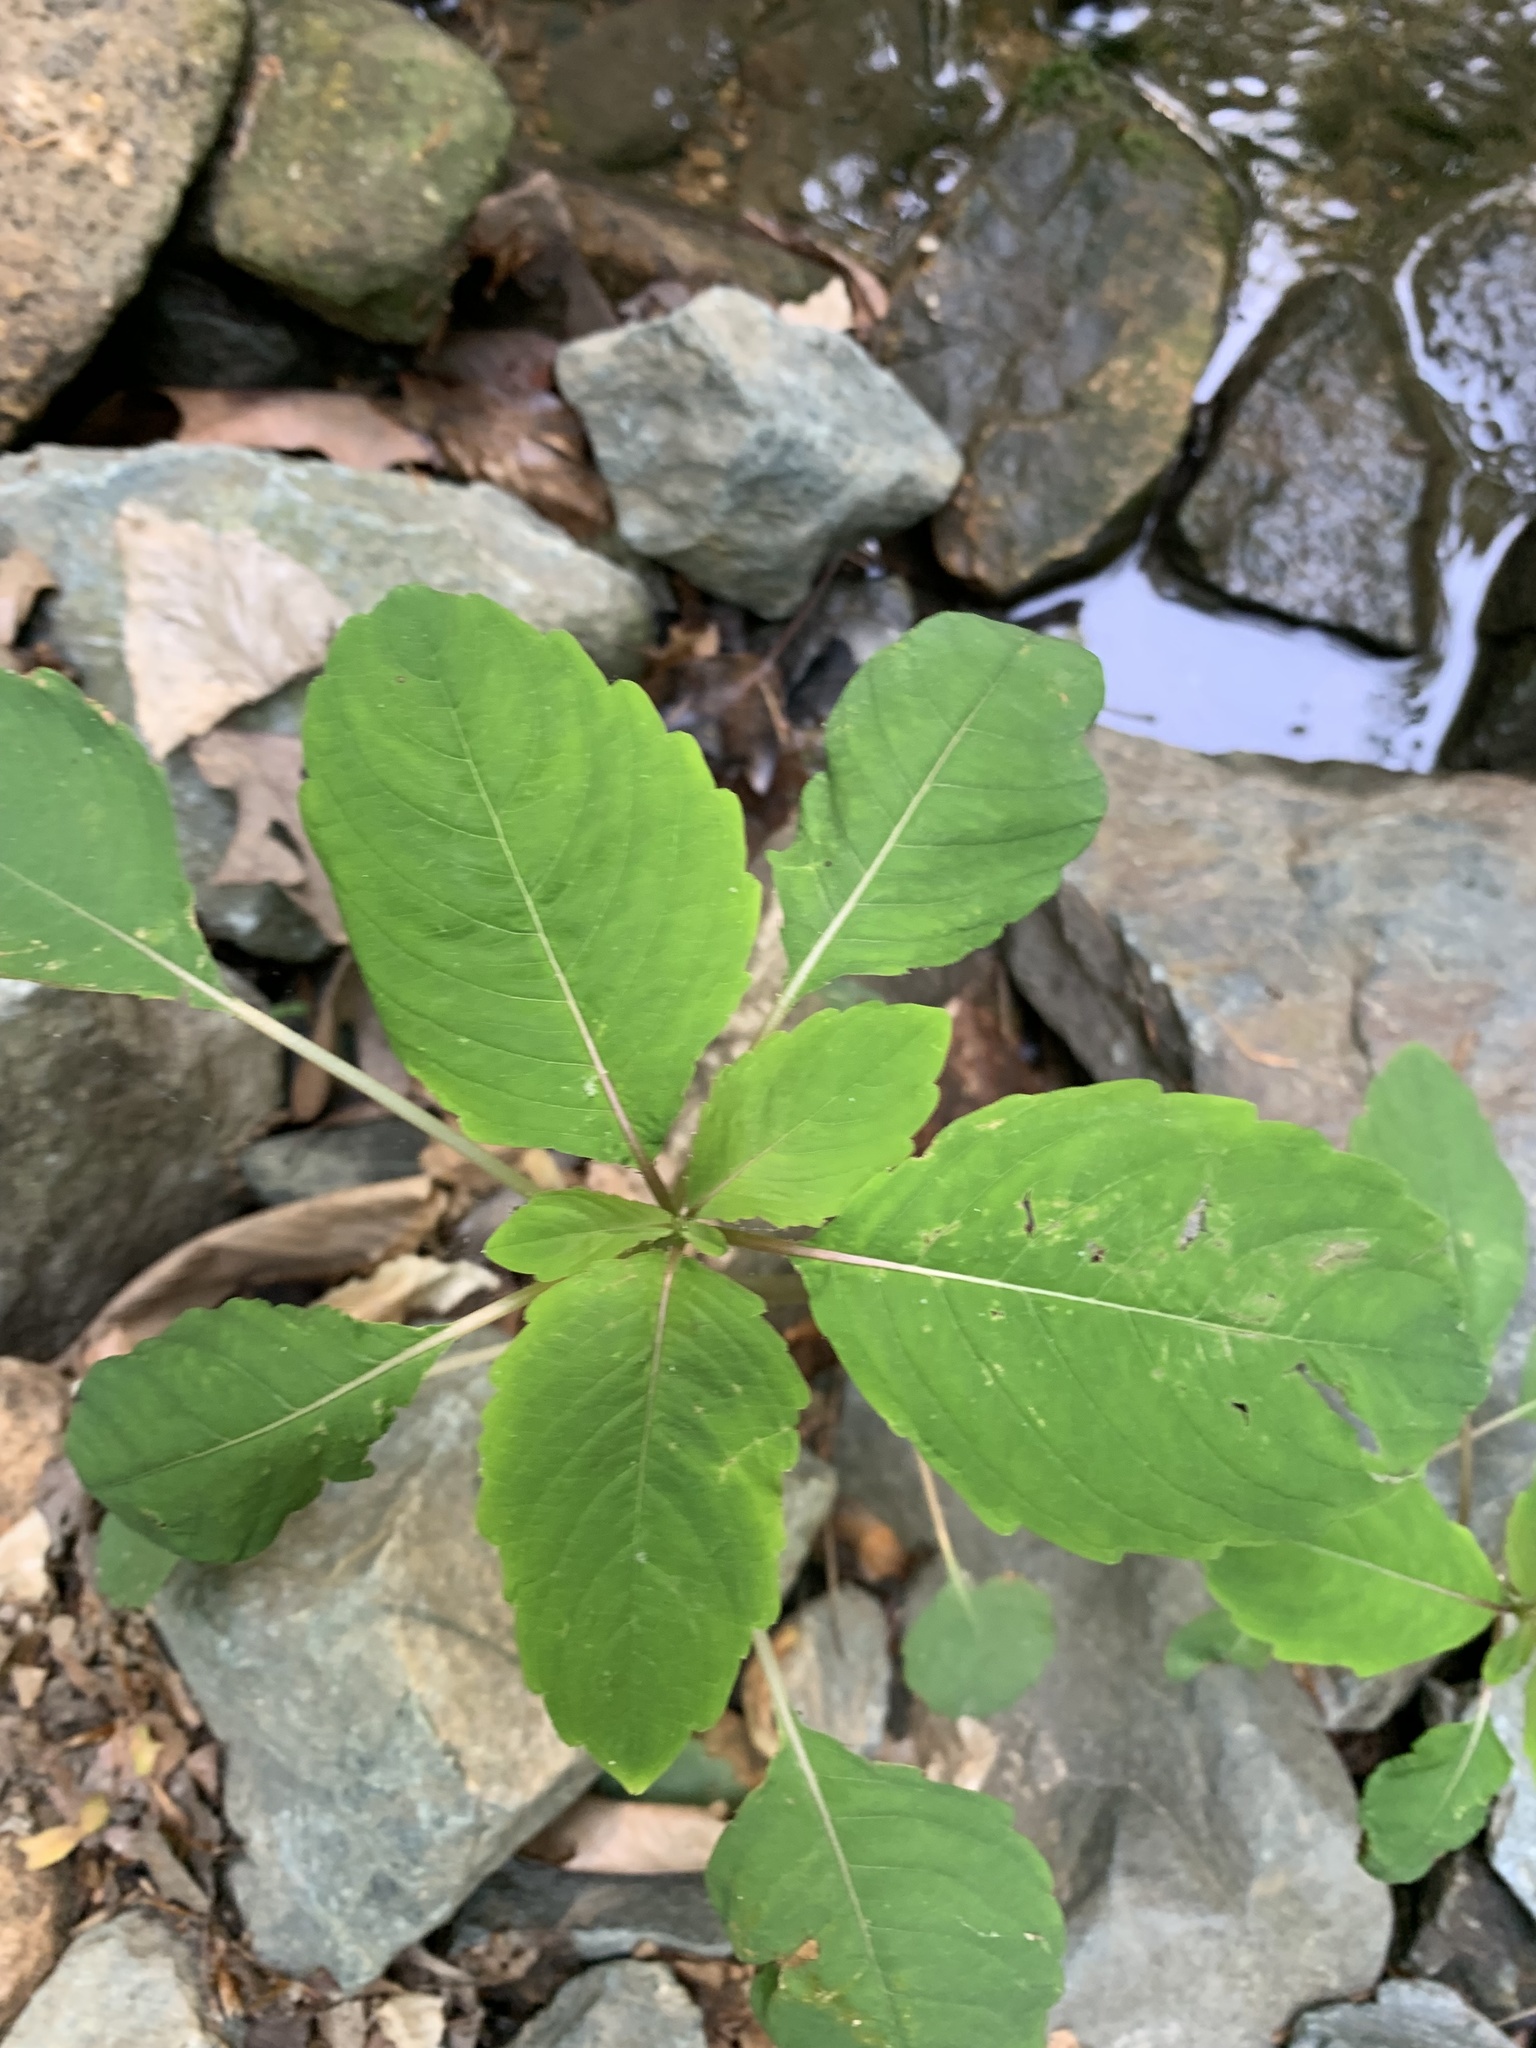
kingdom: Plantae
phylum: Tracheophyta
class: Magnoliopsida
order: Ericales
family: Balsaminaceae
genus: Impatiens
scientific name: Impatiens capensis
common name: Orange balsam
